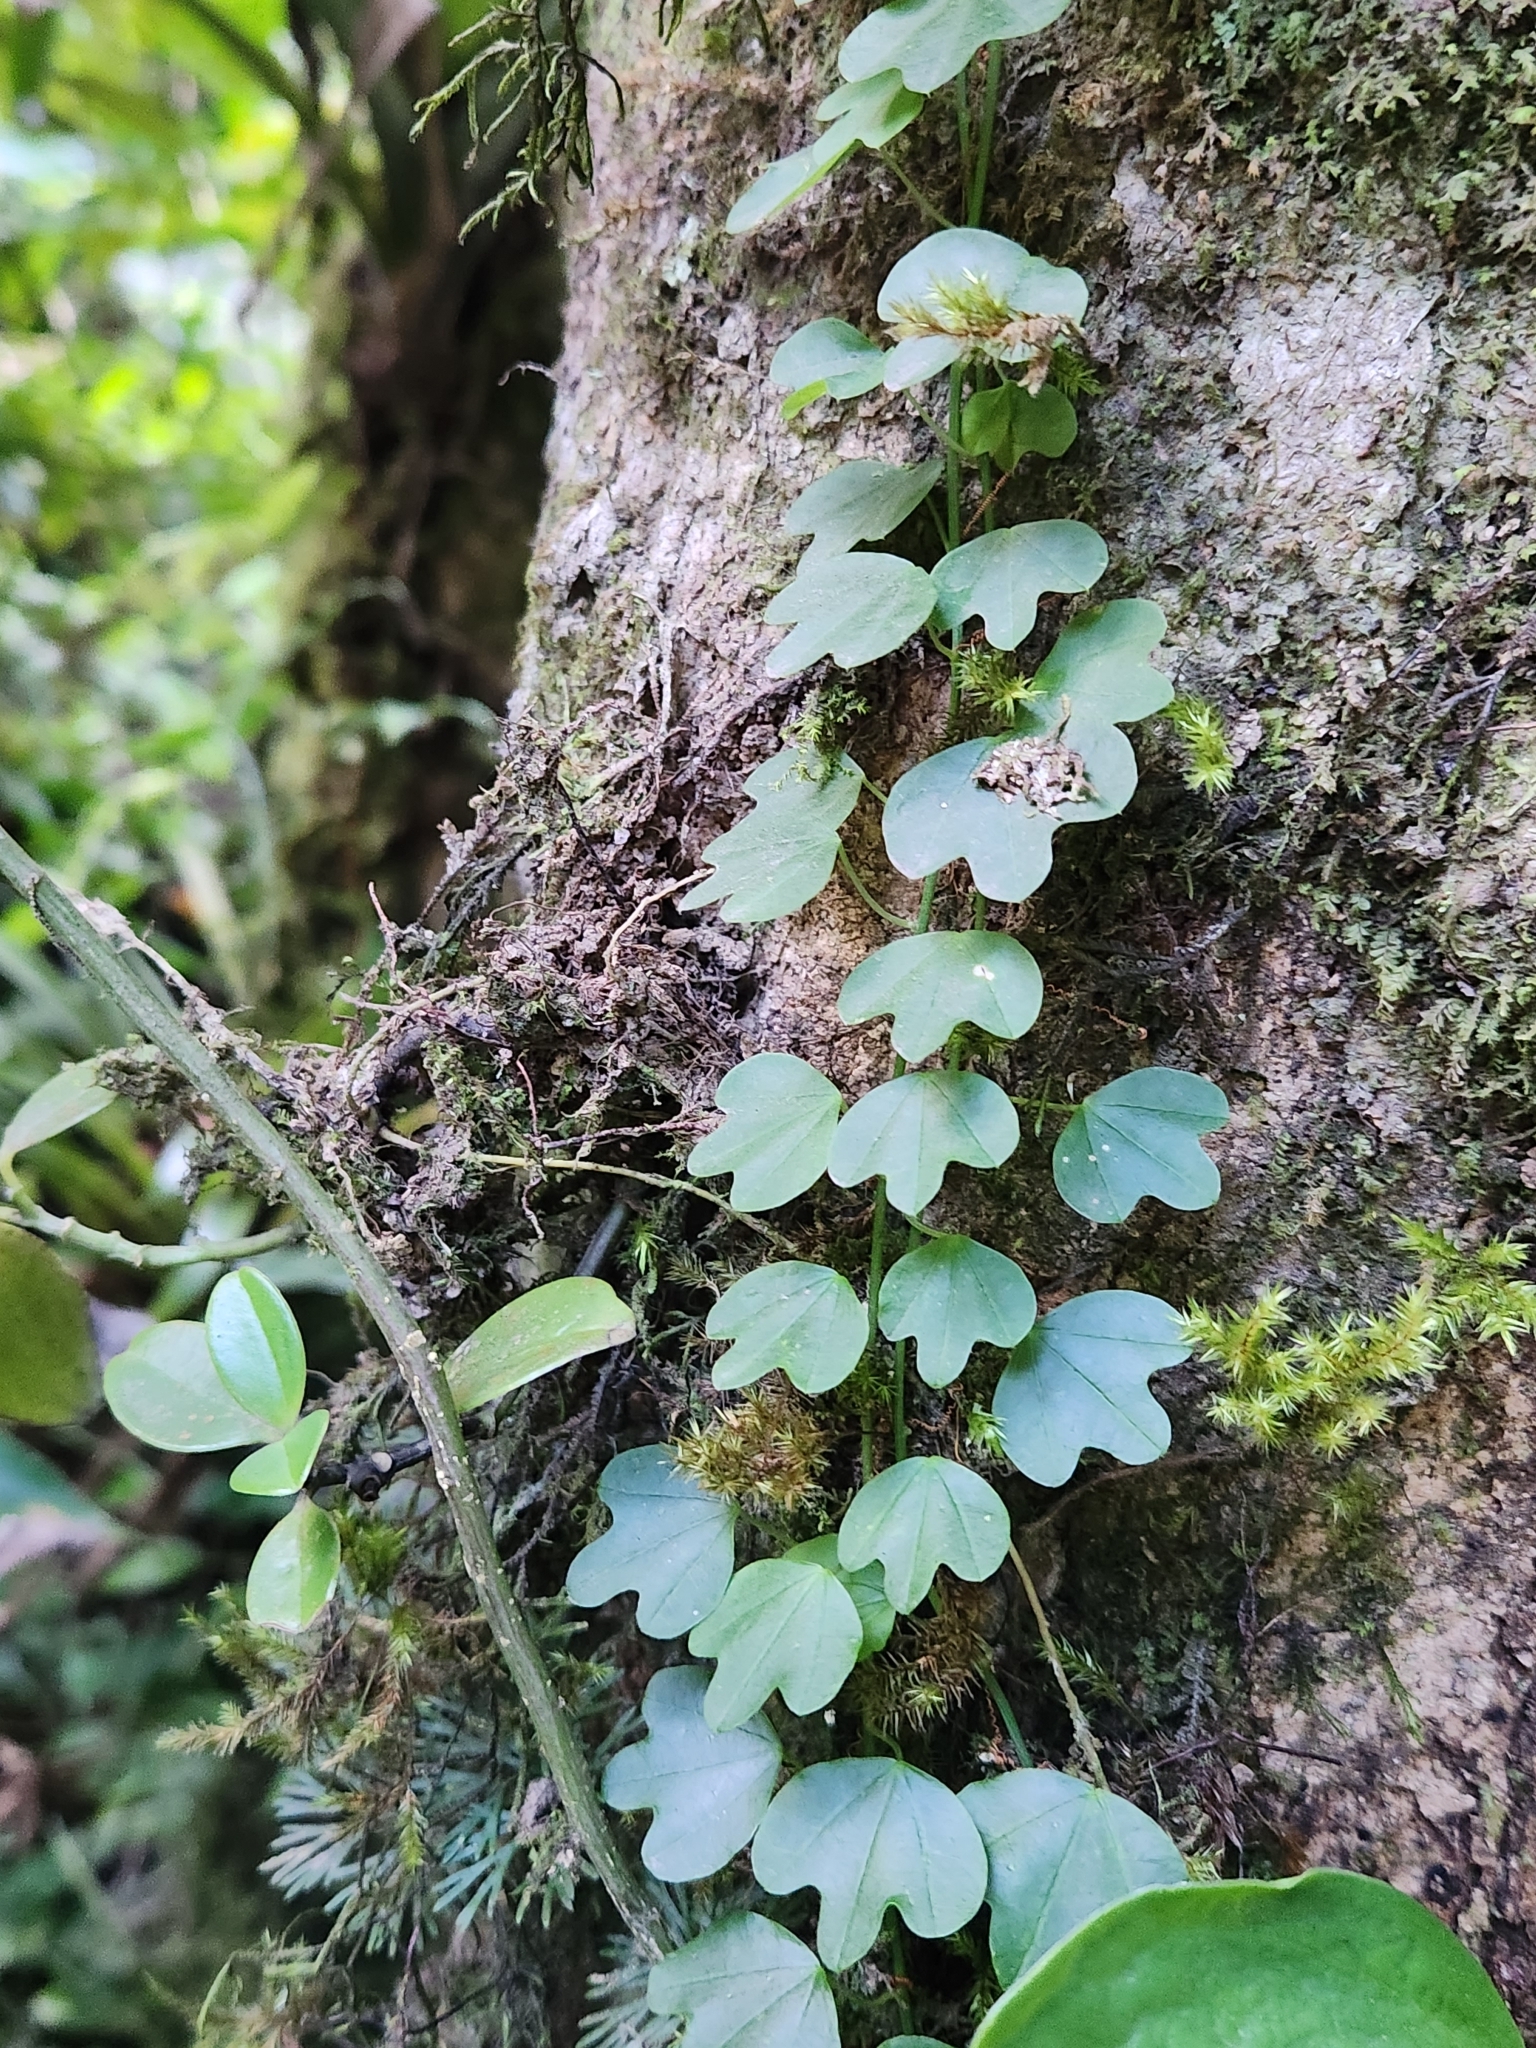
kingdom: Plantae
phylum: Tracheophyta
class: Magnoliopsida
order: Malpighiales
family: Passifloraceae
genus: Passiflora
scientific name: Passiflora lancearia
